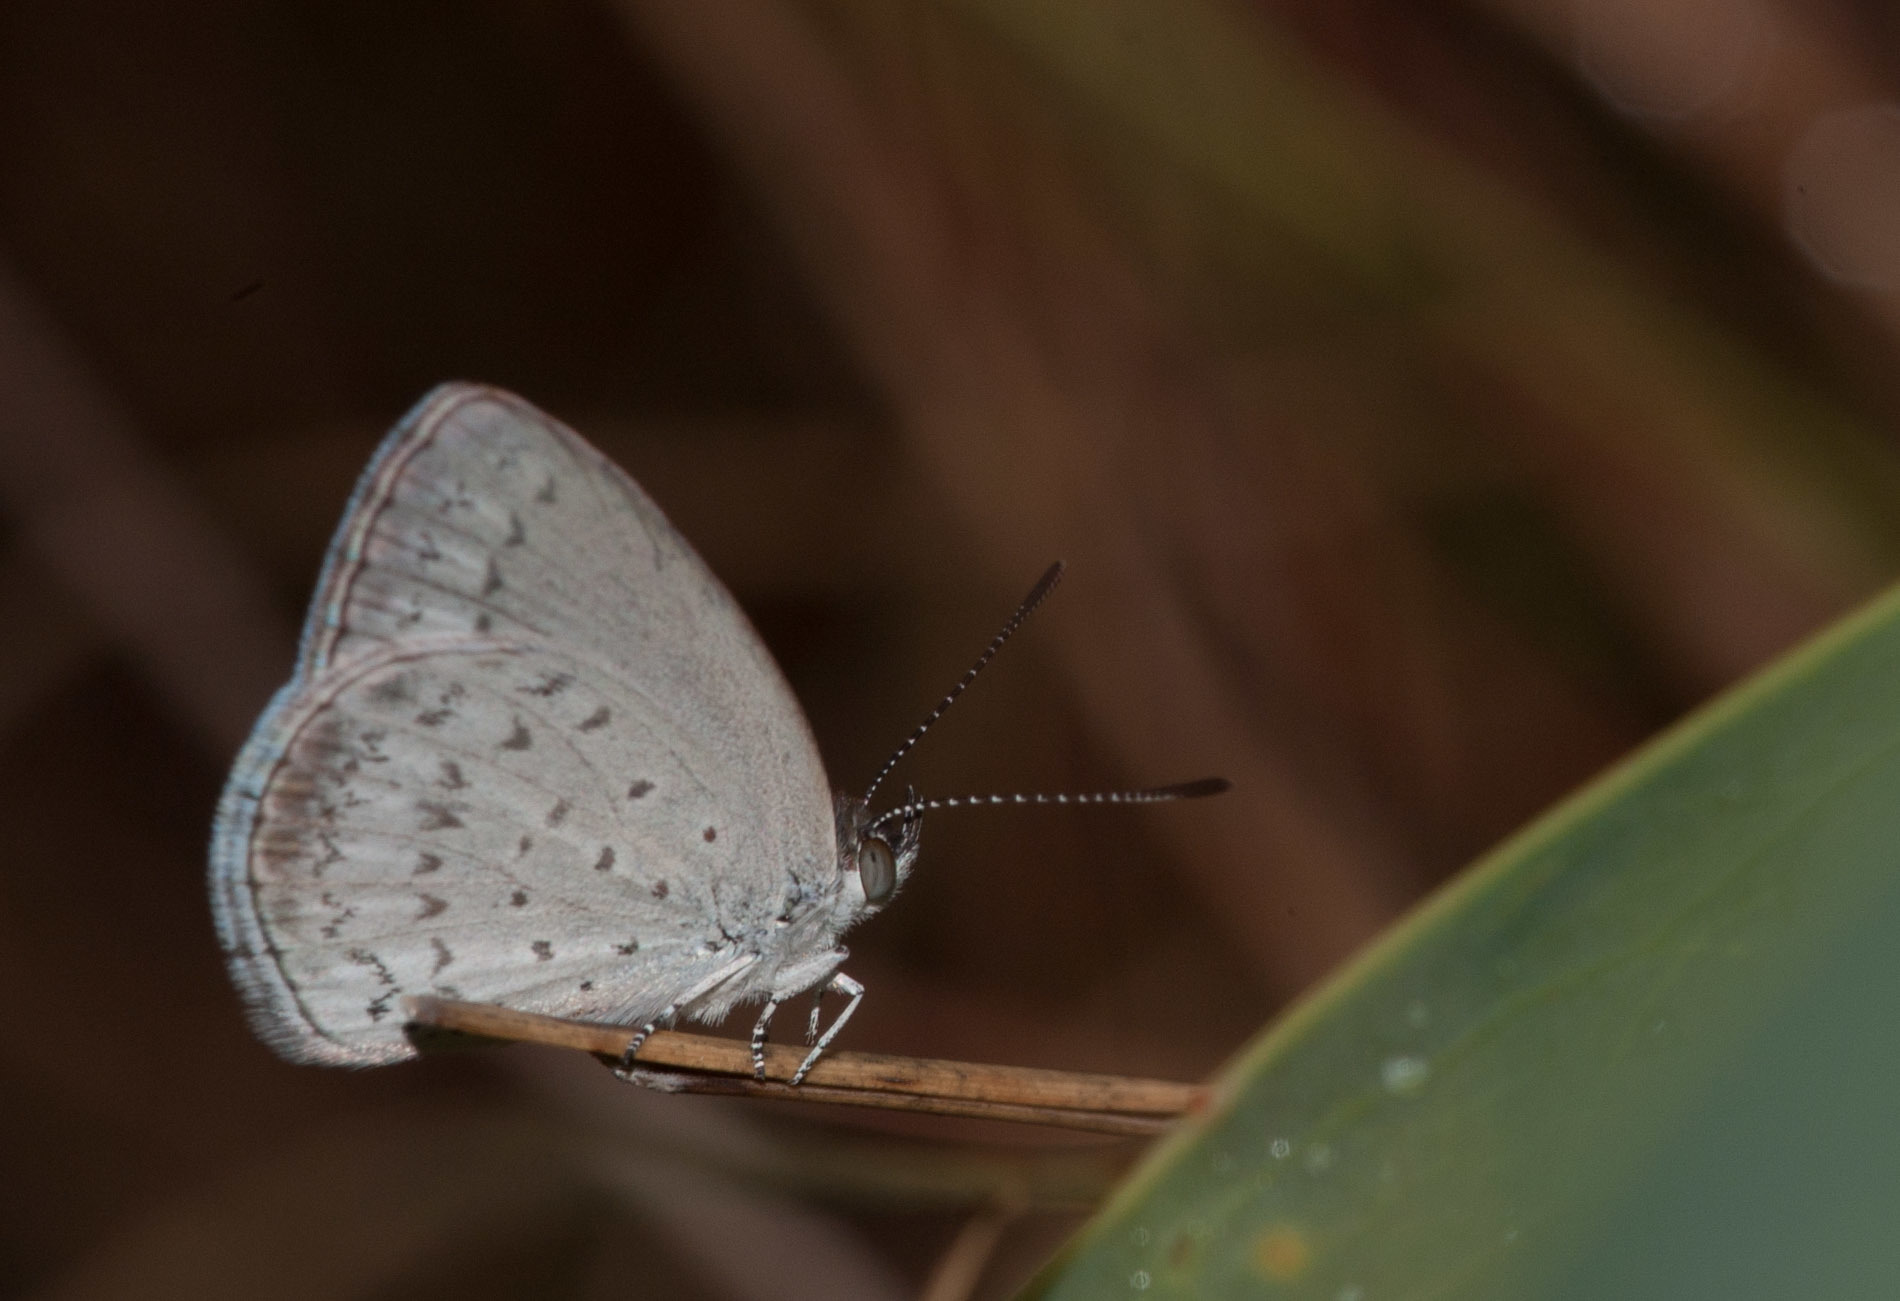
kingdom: Animalia
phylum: Arthropoda
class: Insecta
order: Lepidoptera
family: Lycaenidae
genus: Candalides
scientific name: Candalides
